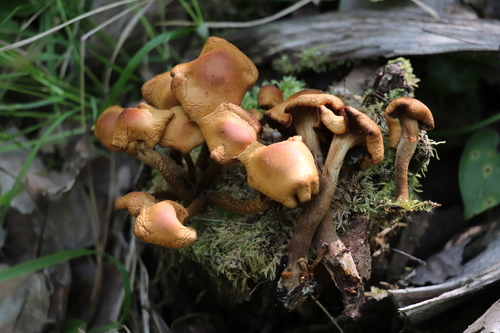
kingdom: Fungi
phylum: Basidiomycota
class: Agaricomycetes
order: Agaricales
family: Strophariaceae
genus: Kuehneromyces
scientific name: Kuehneromyces mutabilis
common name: Sheathed woodtuft
